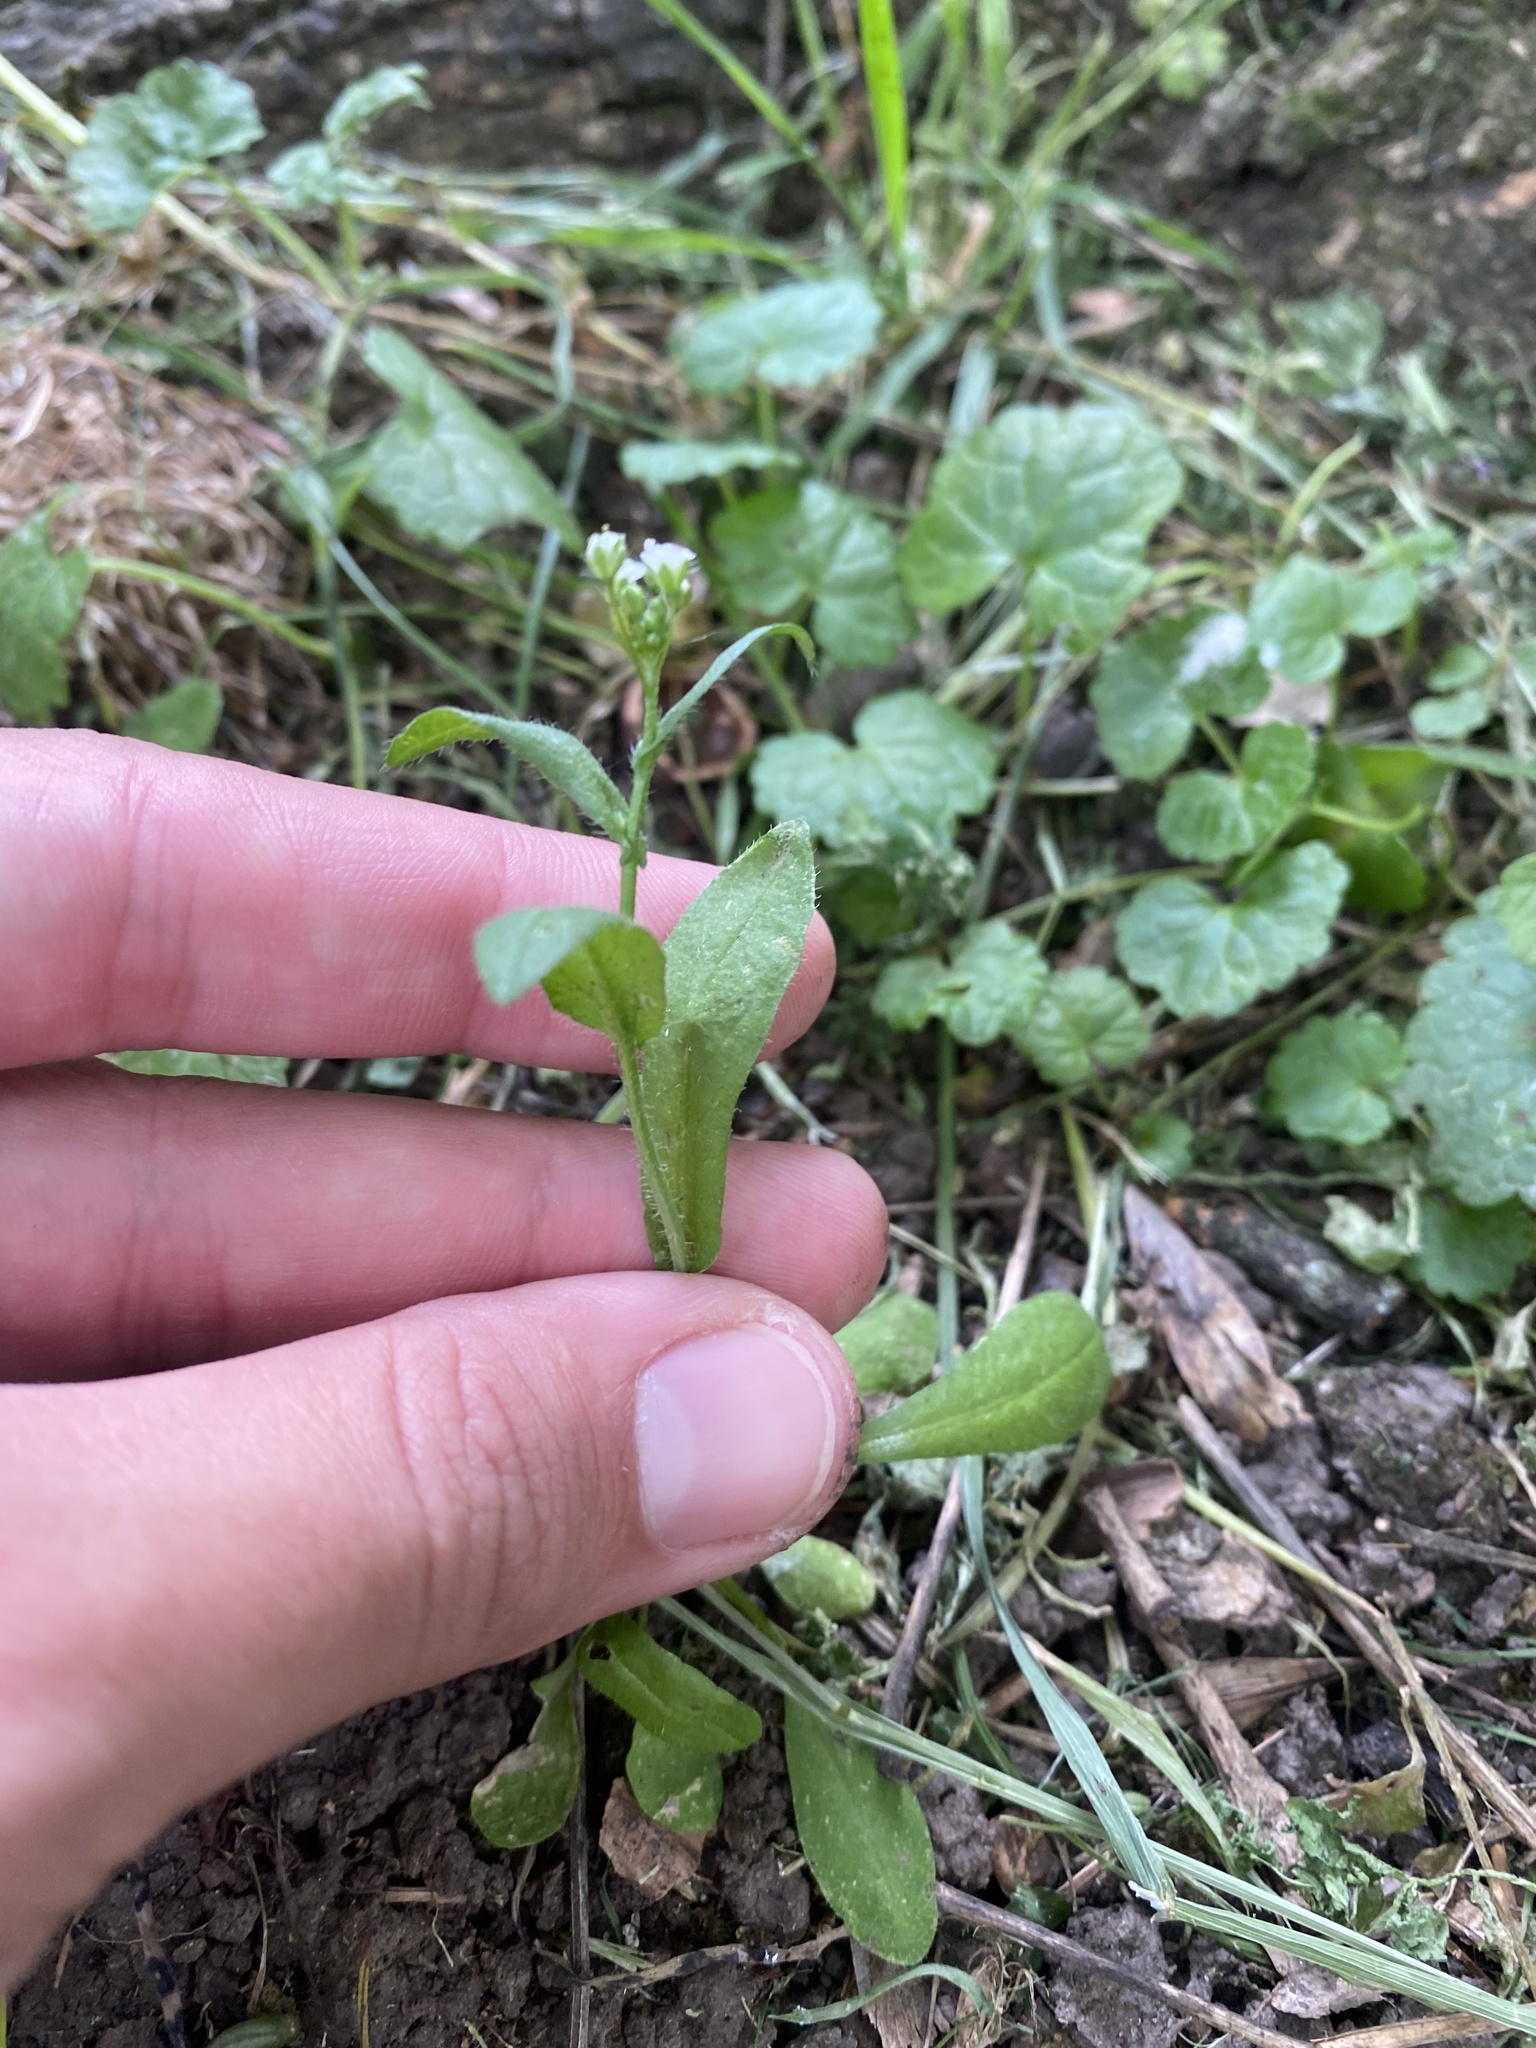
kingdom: Plantae
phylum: Tracheophyta
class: Magnoliopsida
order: Brassicales
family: Brassicaceae
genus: Capsella
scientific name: Capsella bursa-pastoris
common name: Shepherd's purse
